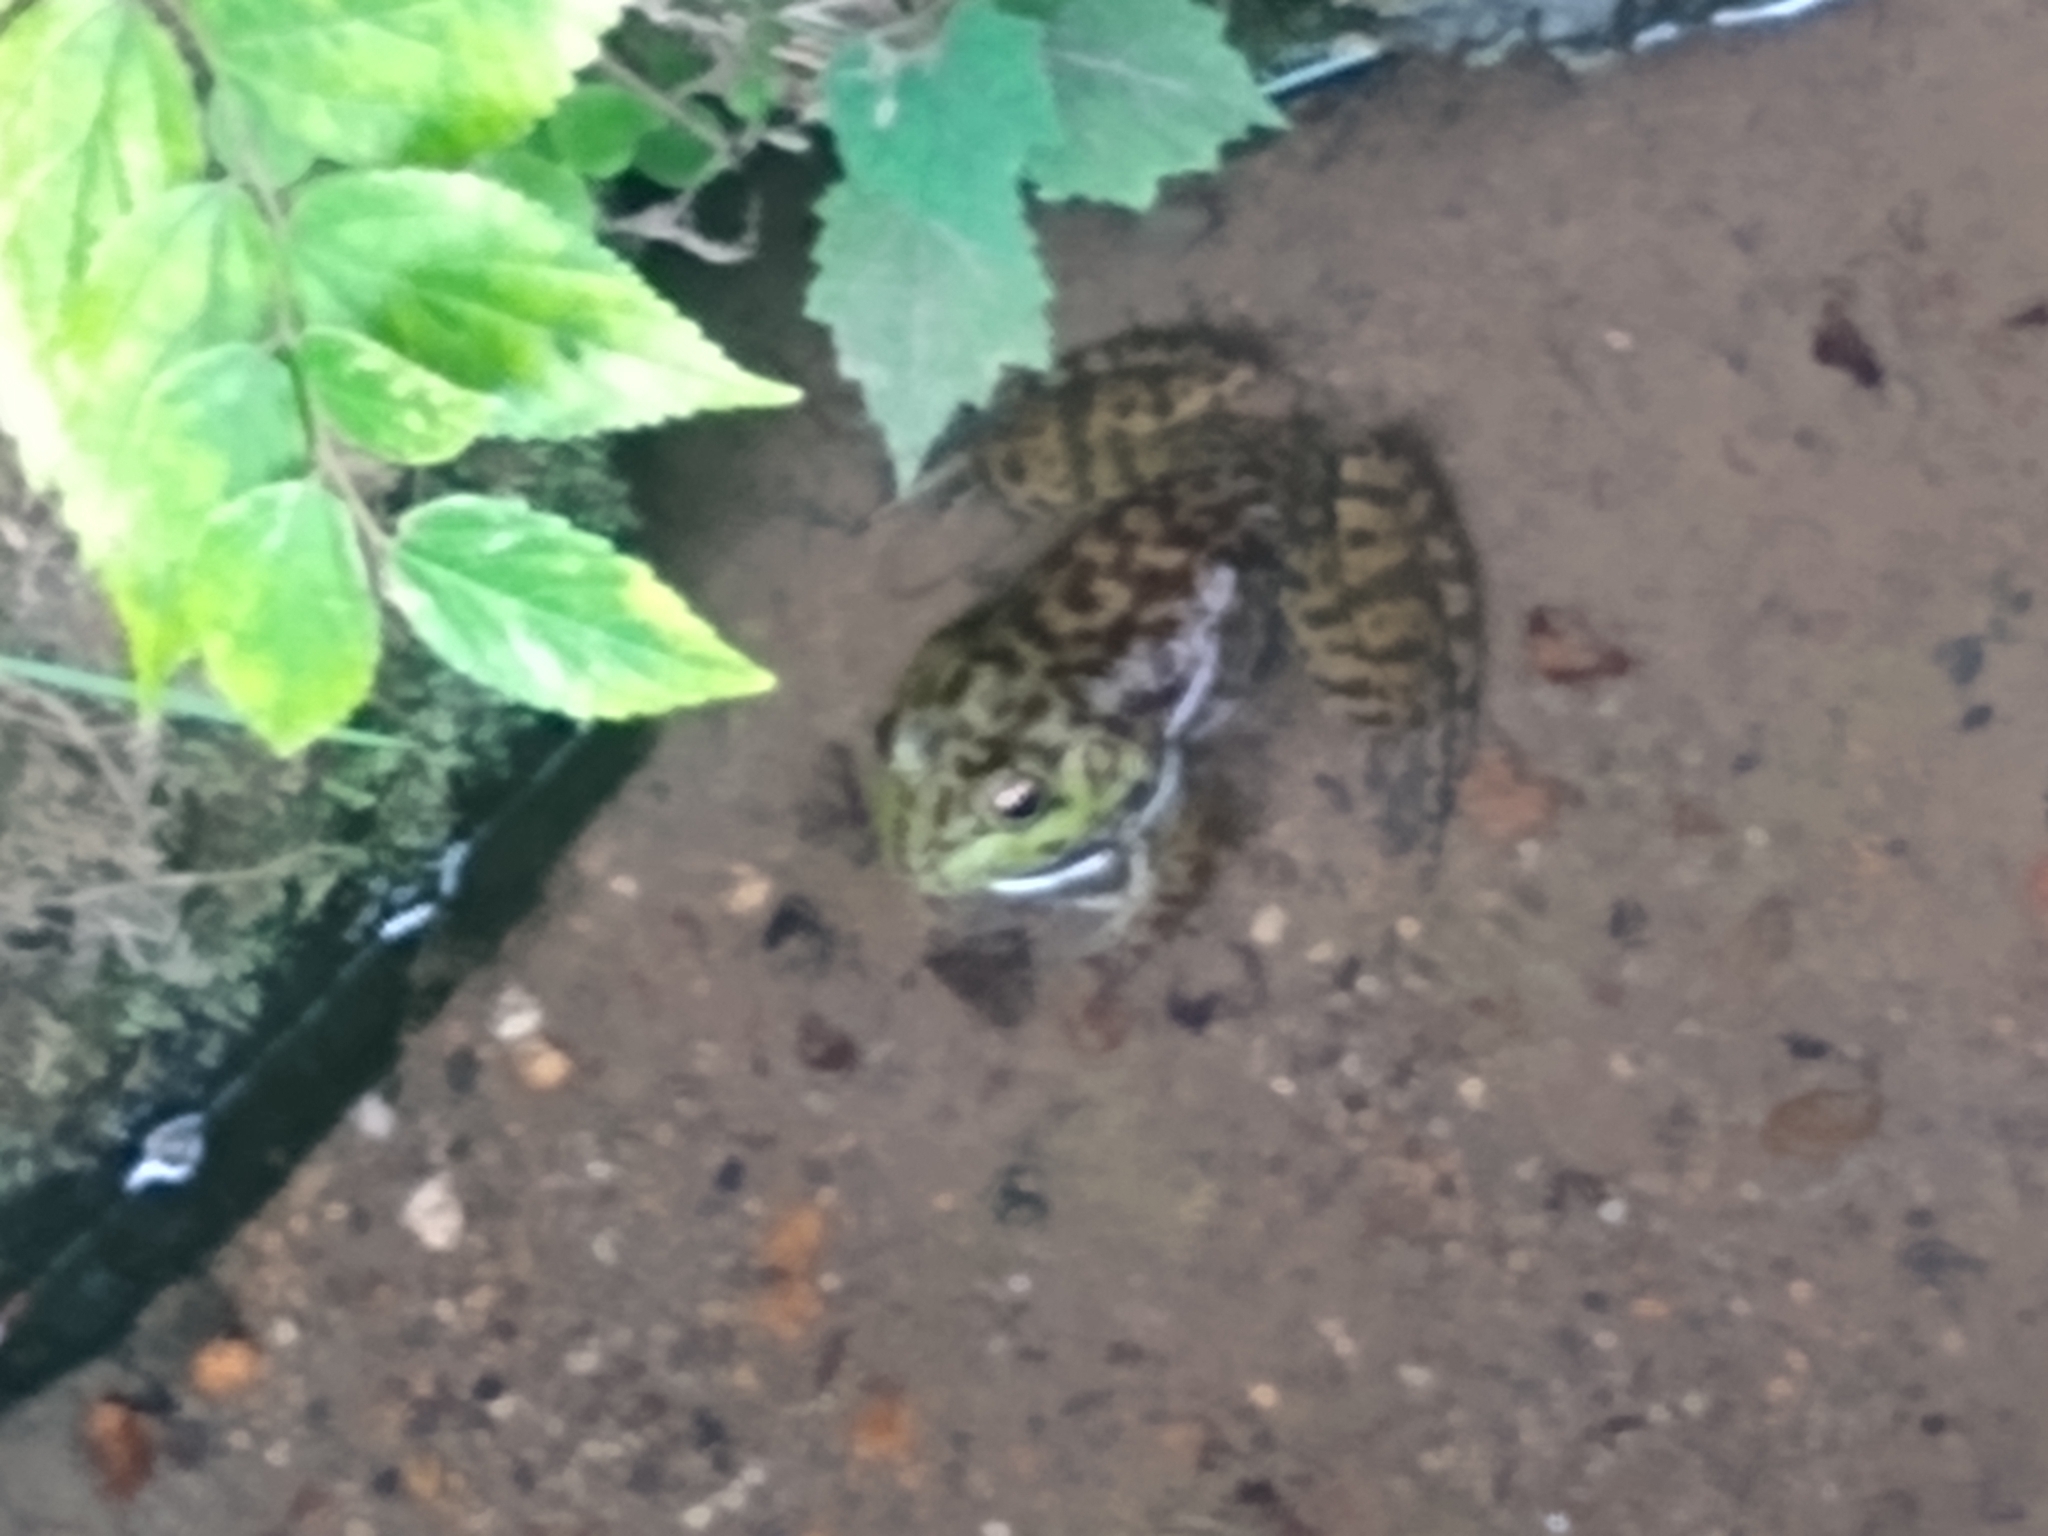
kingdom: Animalia
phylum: Chordata
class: Amphibia
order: Anura
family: Ranidae
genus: Lithobates
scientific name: Lithobates catesbeianus
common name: American bullfrog
